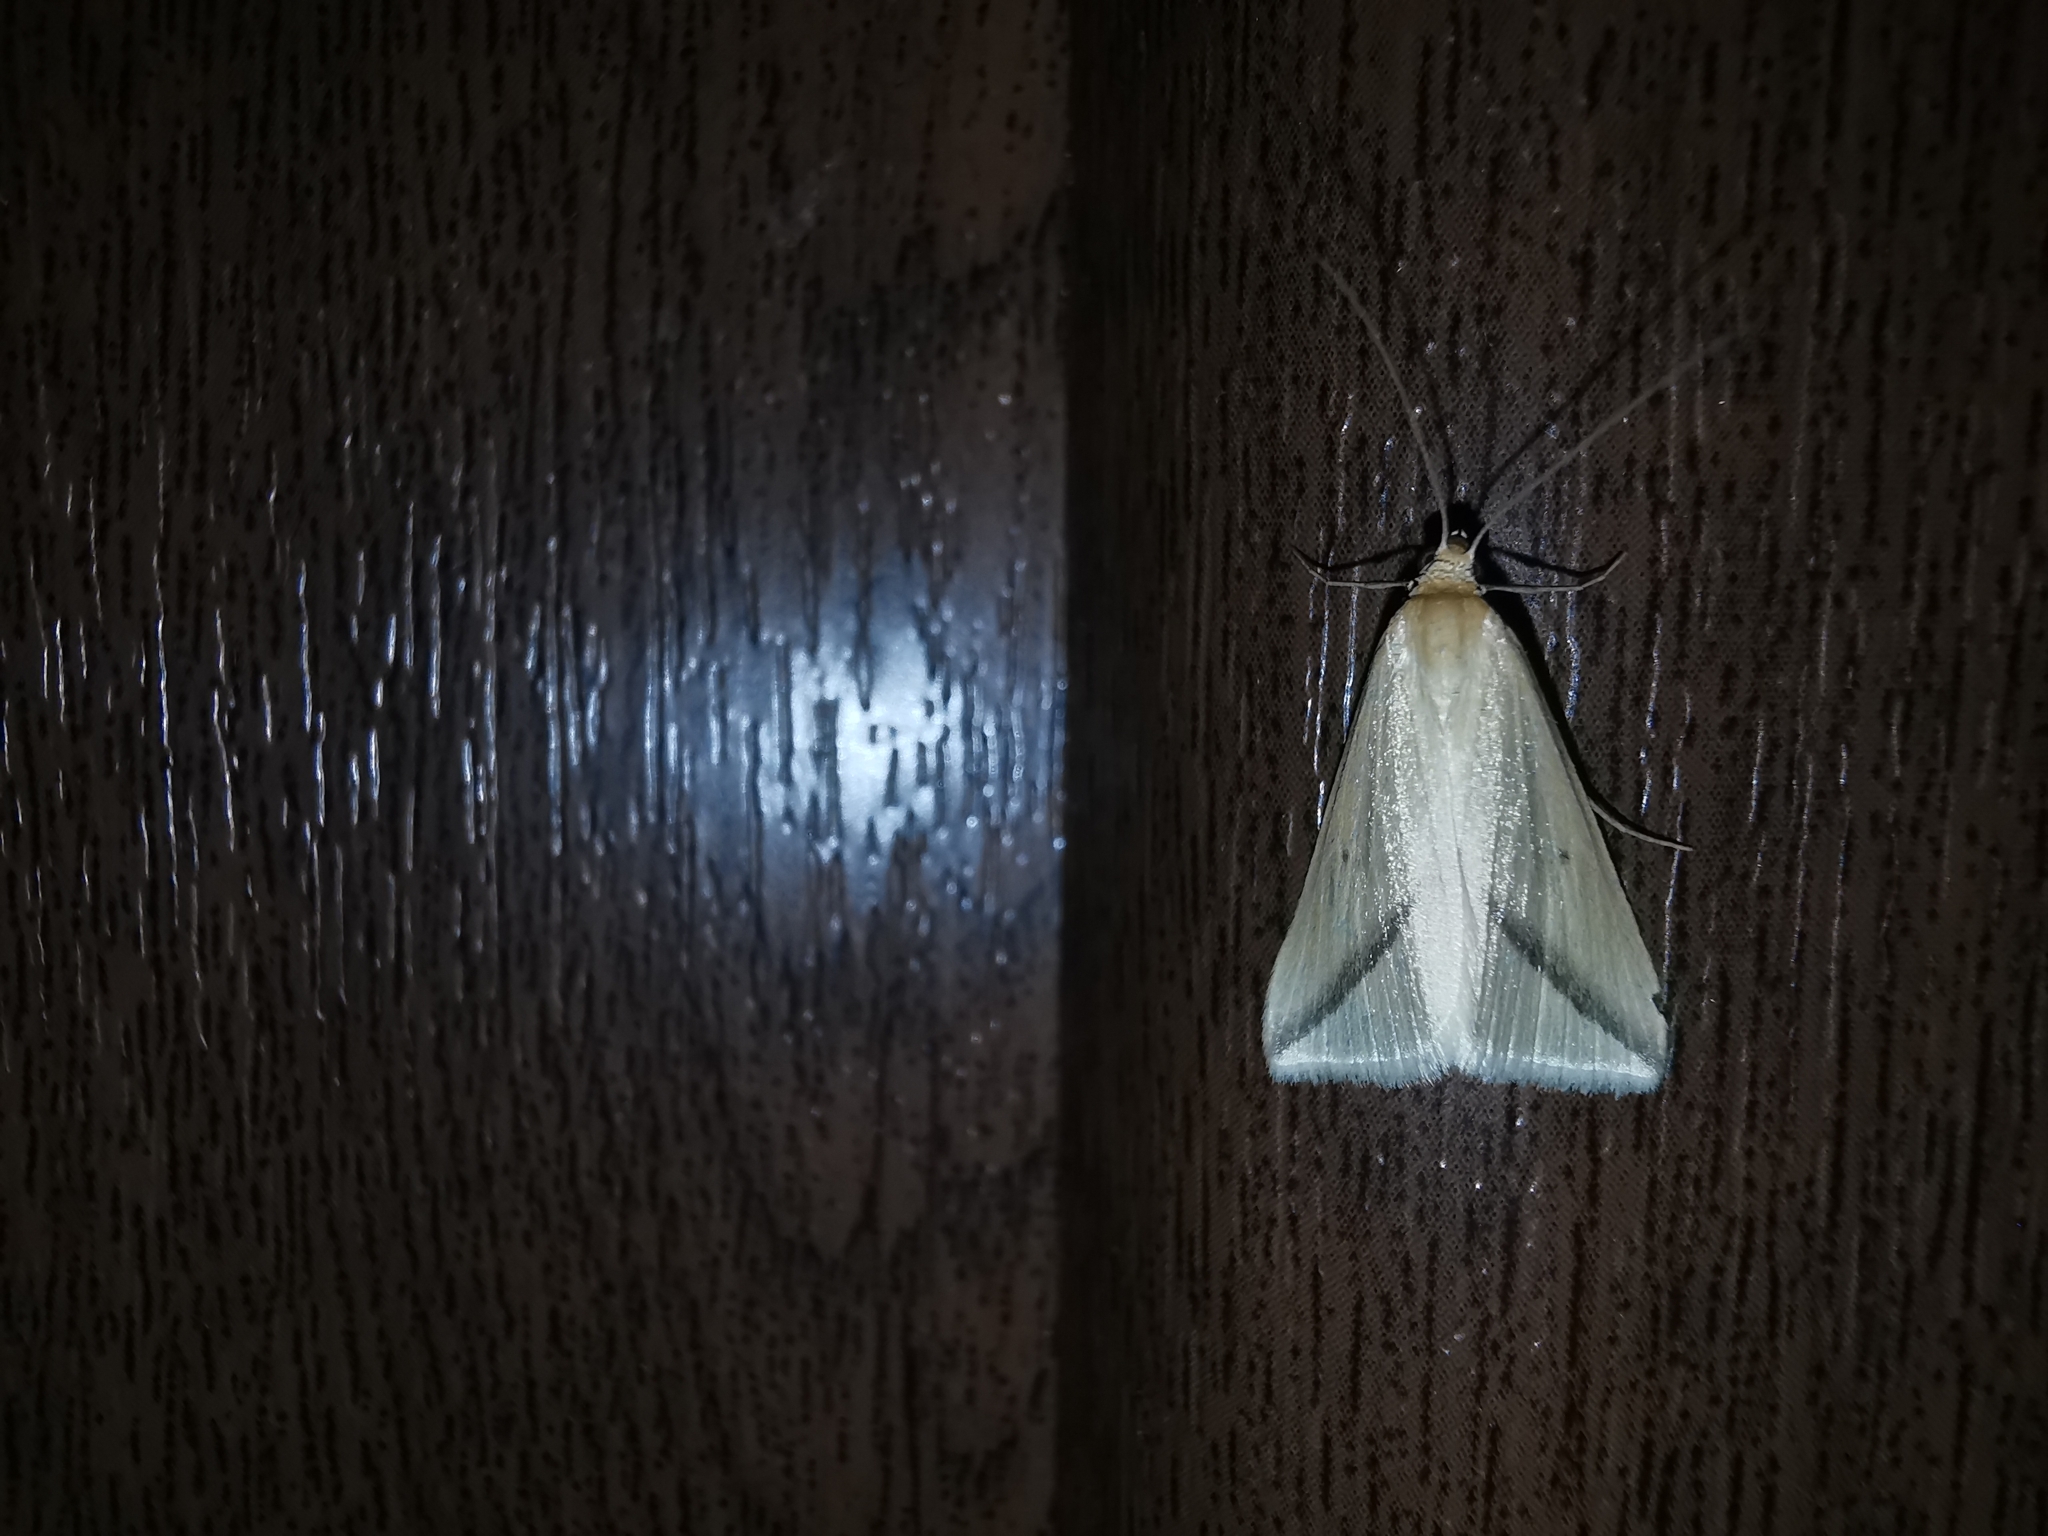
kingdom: Animalia
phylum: Arthropoda
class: Insecta
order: Lepidoptera
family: Geometridae
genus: Rhodometra
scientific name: Rhodometra sacraria
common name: Vestal
